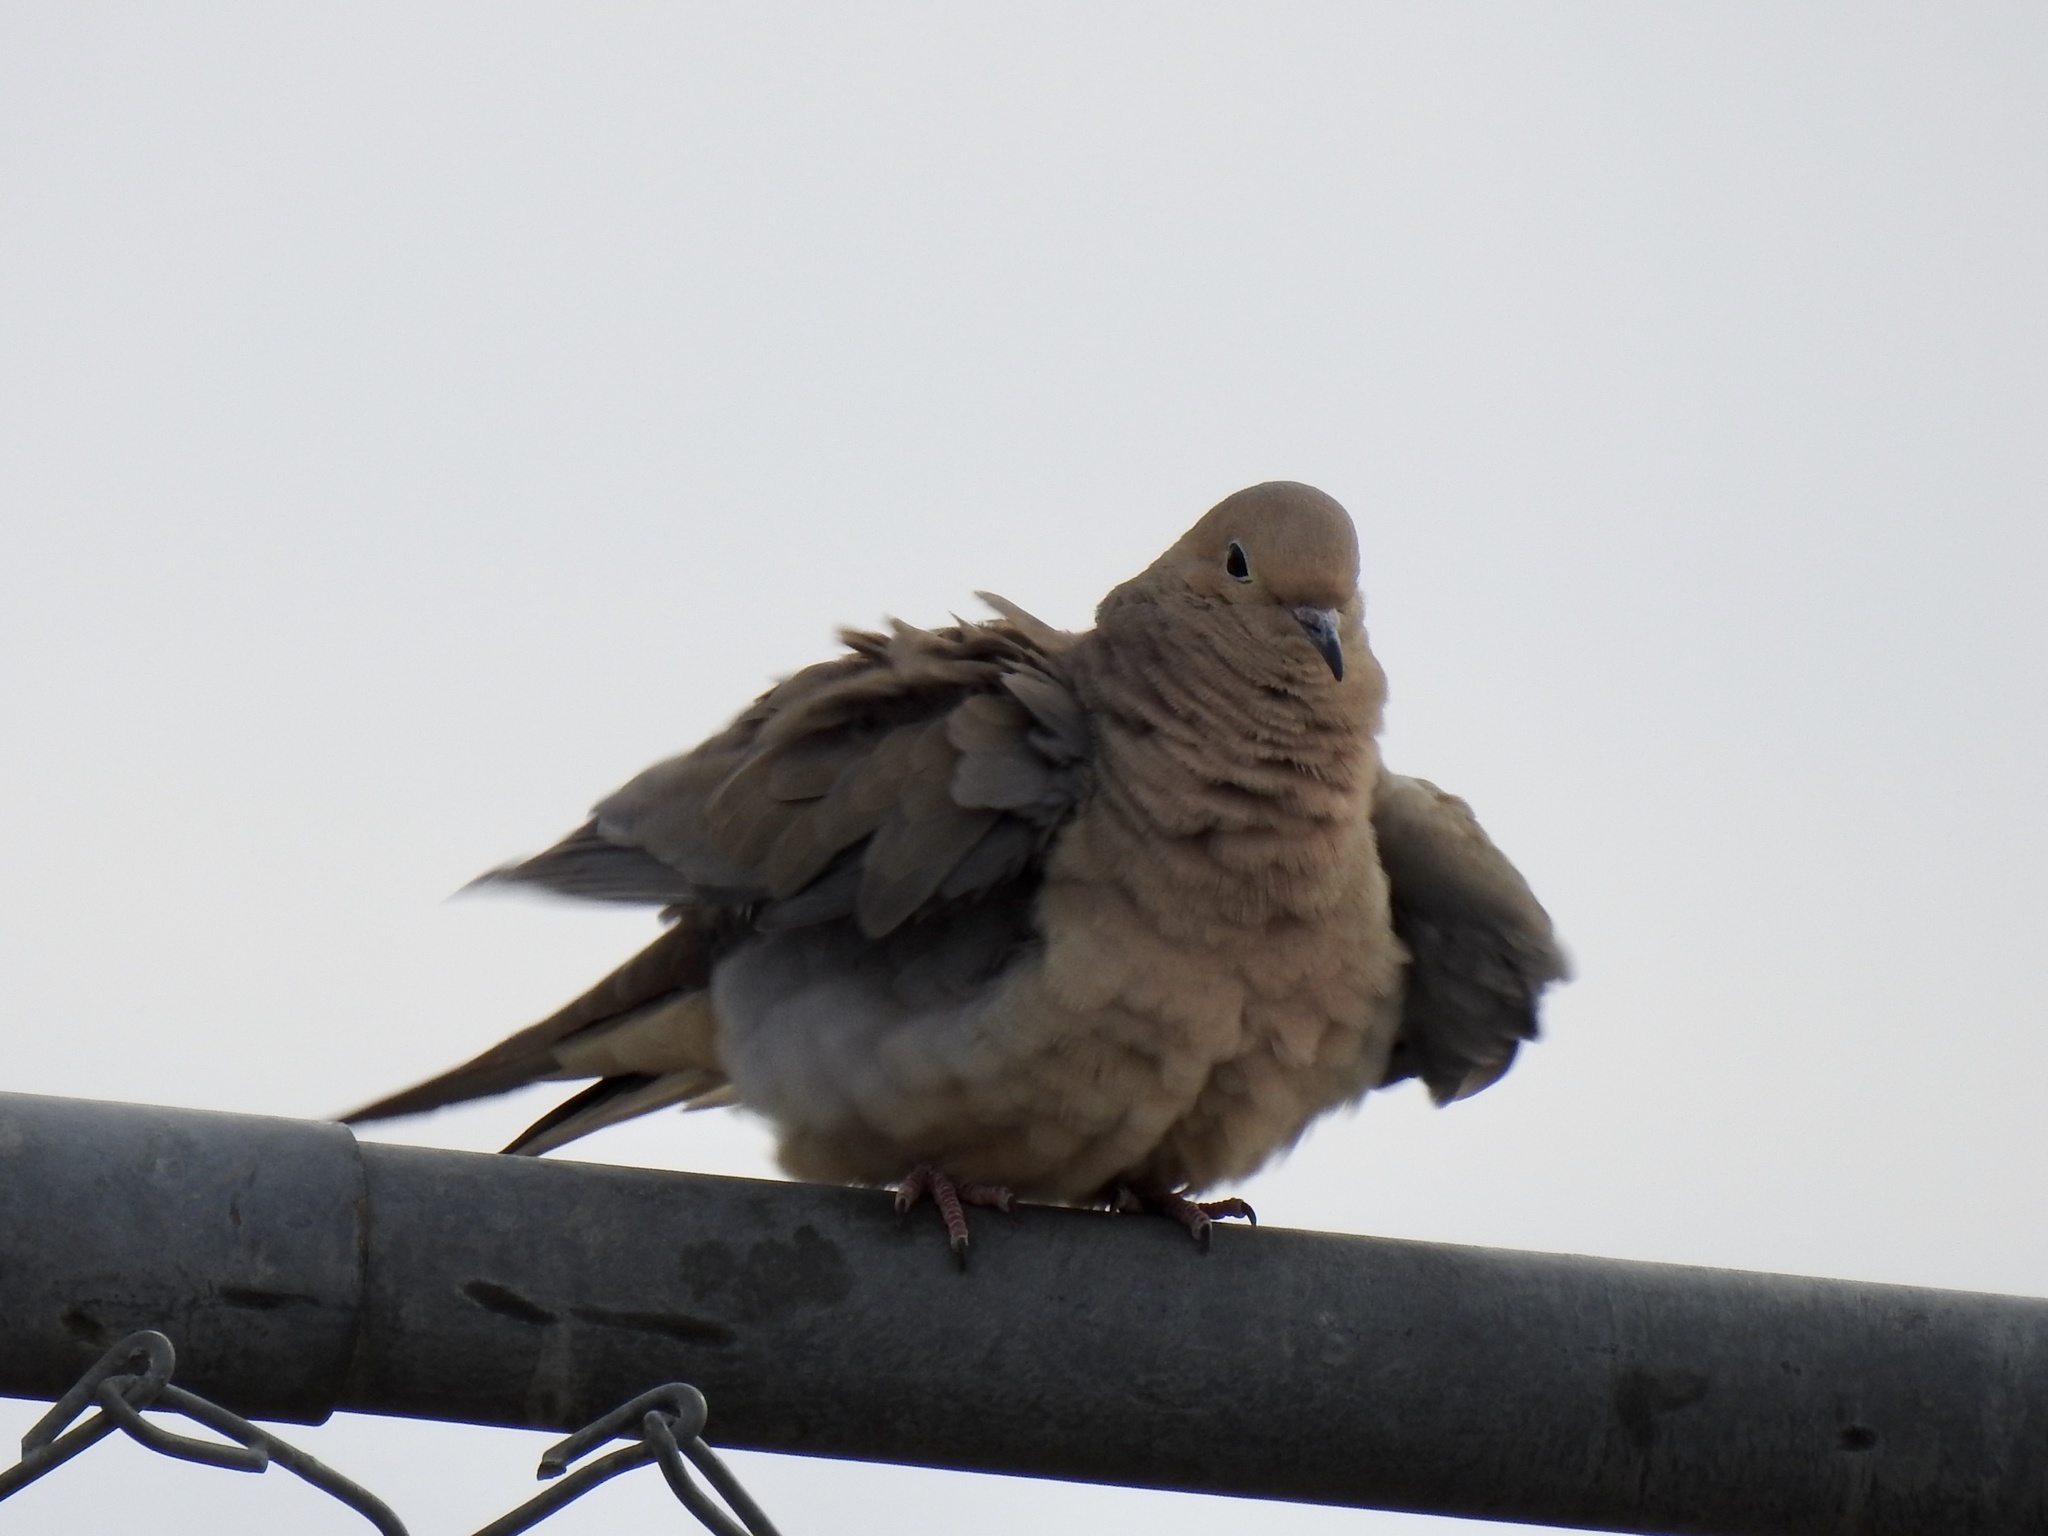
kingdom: Animalia
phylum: Chordata
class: Aves
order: Columbiformes
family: Columbidae
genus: Zenaida
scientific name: Zenaida macroura
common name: Mourning dove
